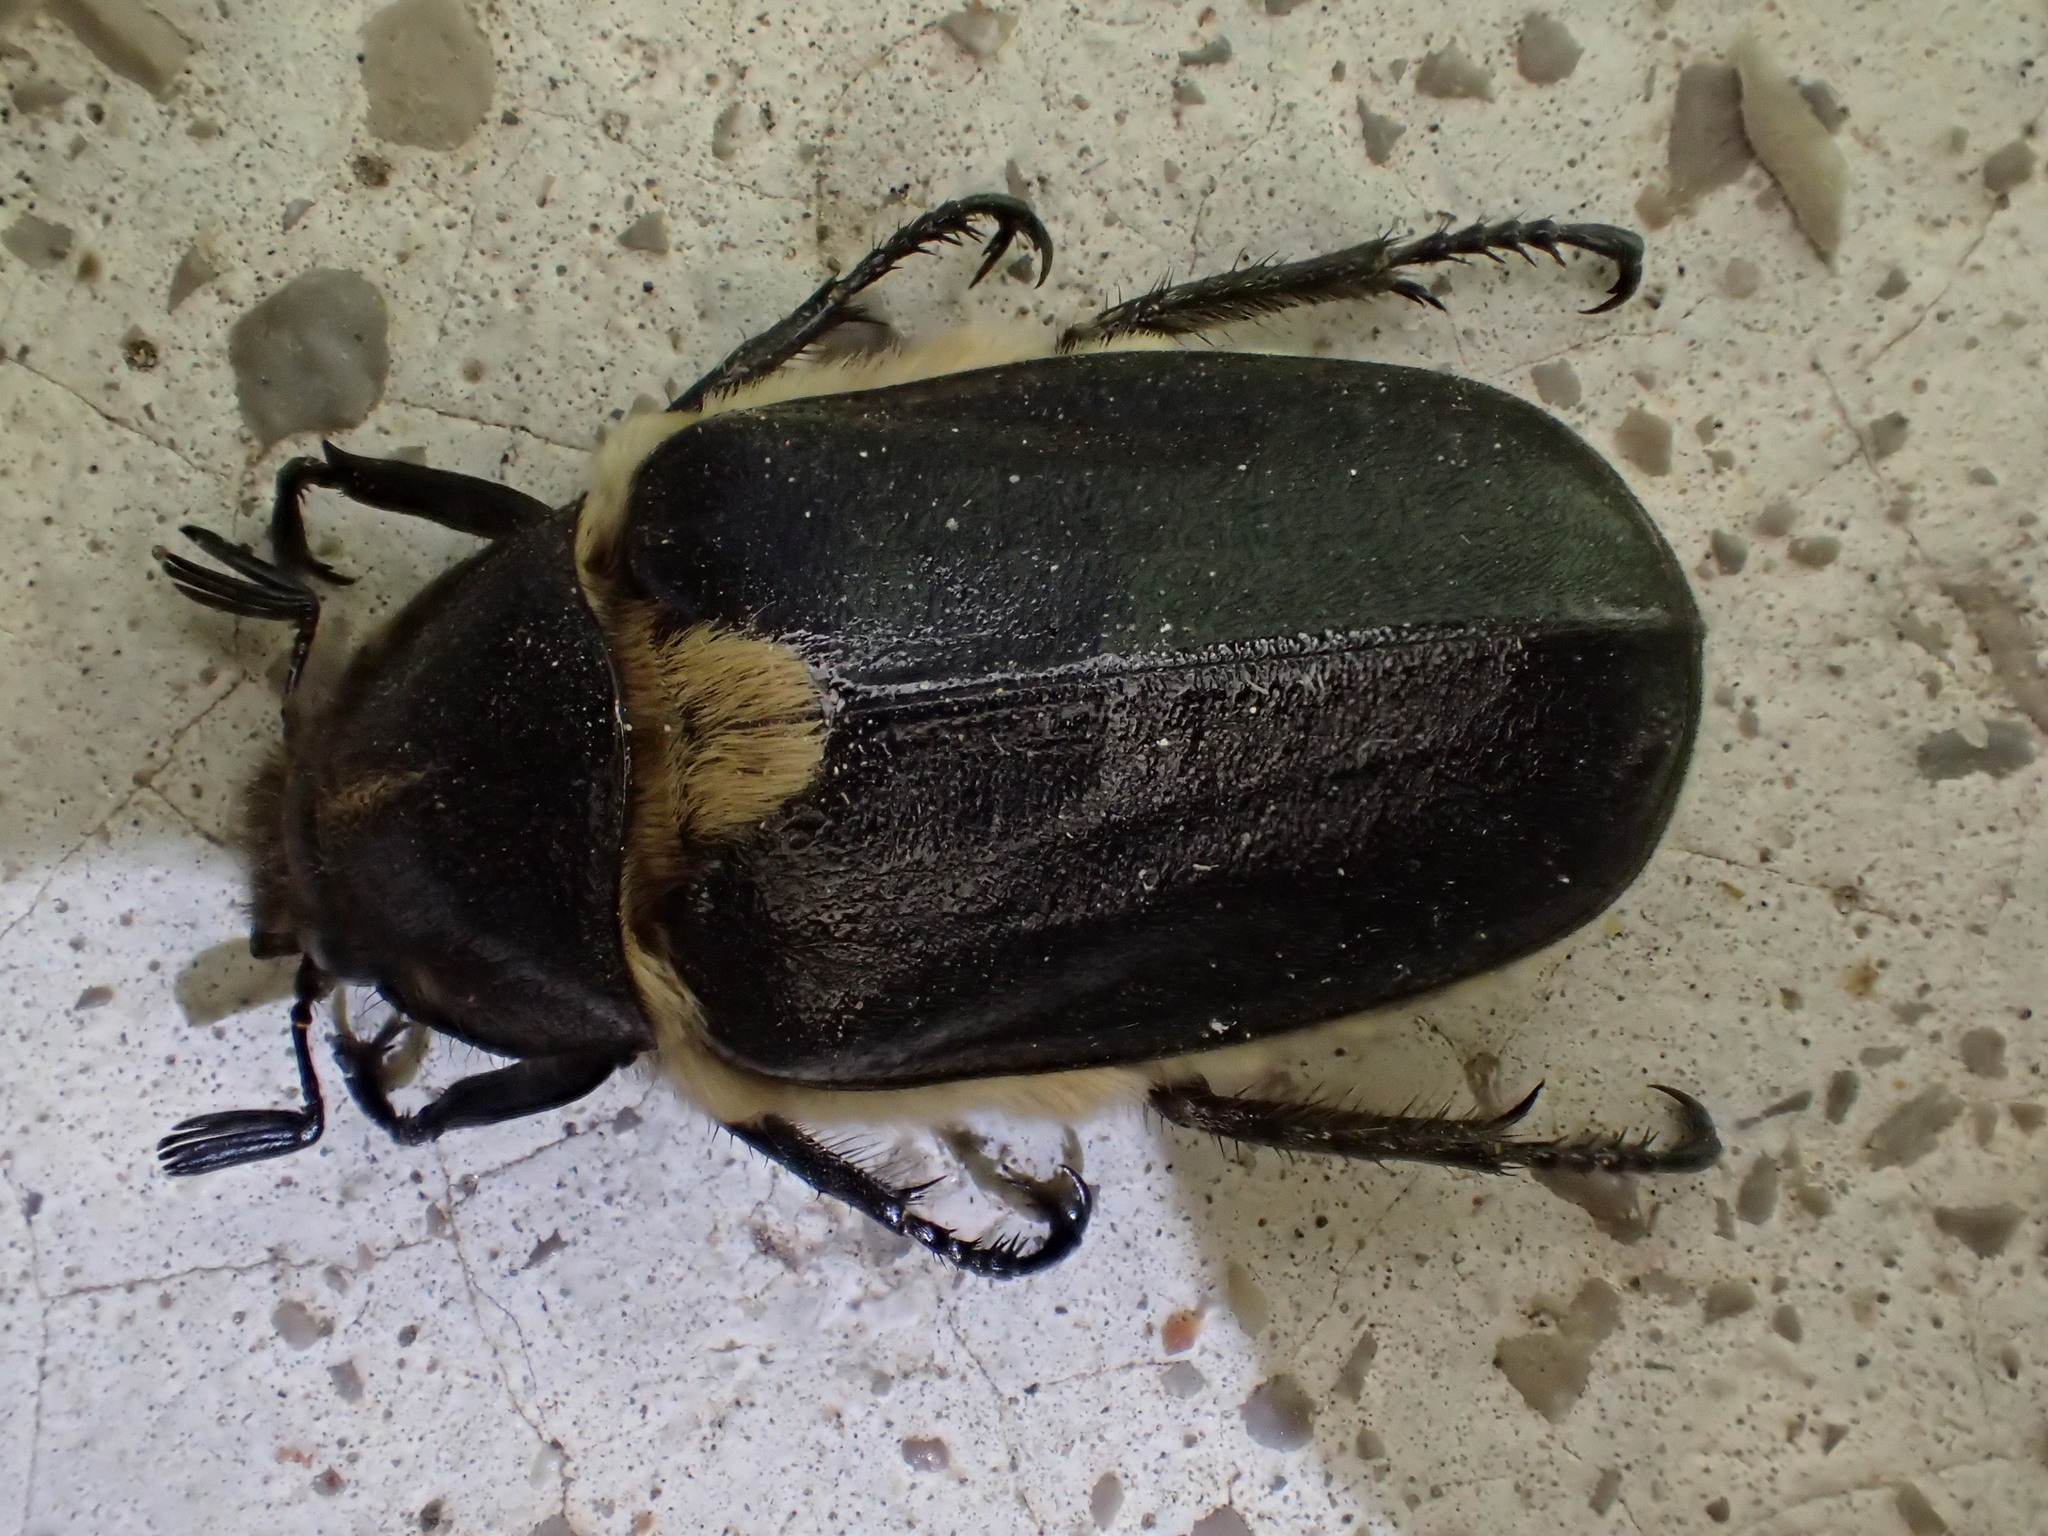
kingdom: Animalia
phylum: Arthropoda
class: Insecta
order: Coleoptera
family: Scarabaeidae
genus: Anoxia
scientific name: Anoxia scutellaris
